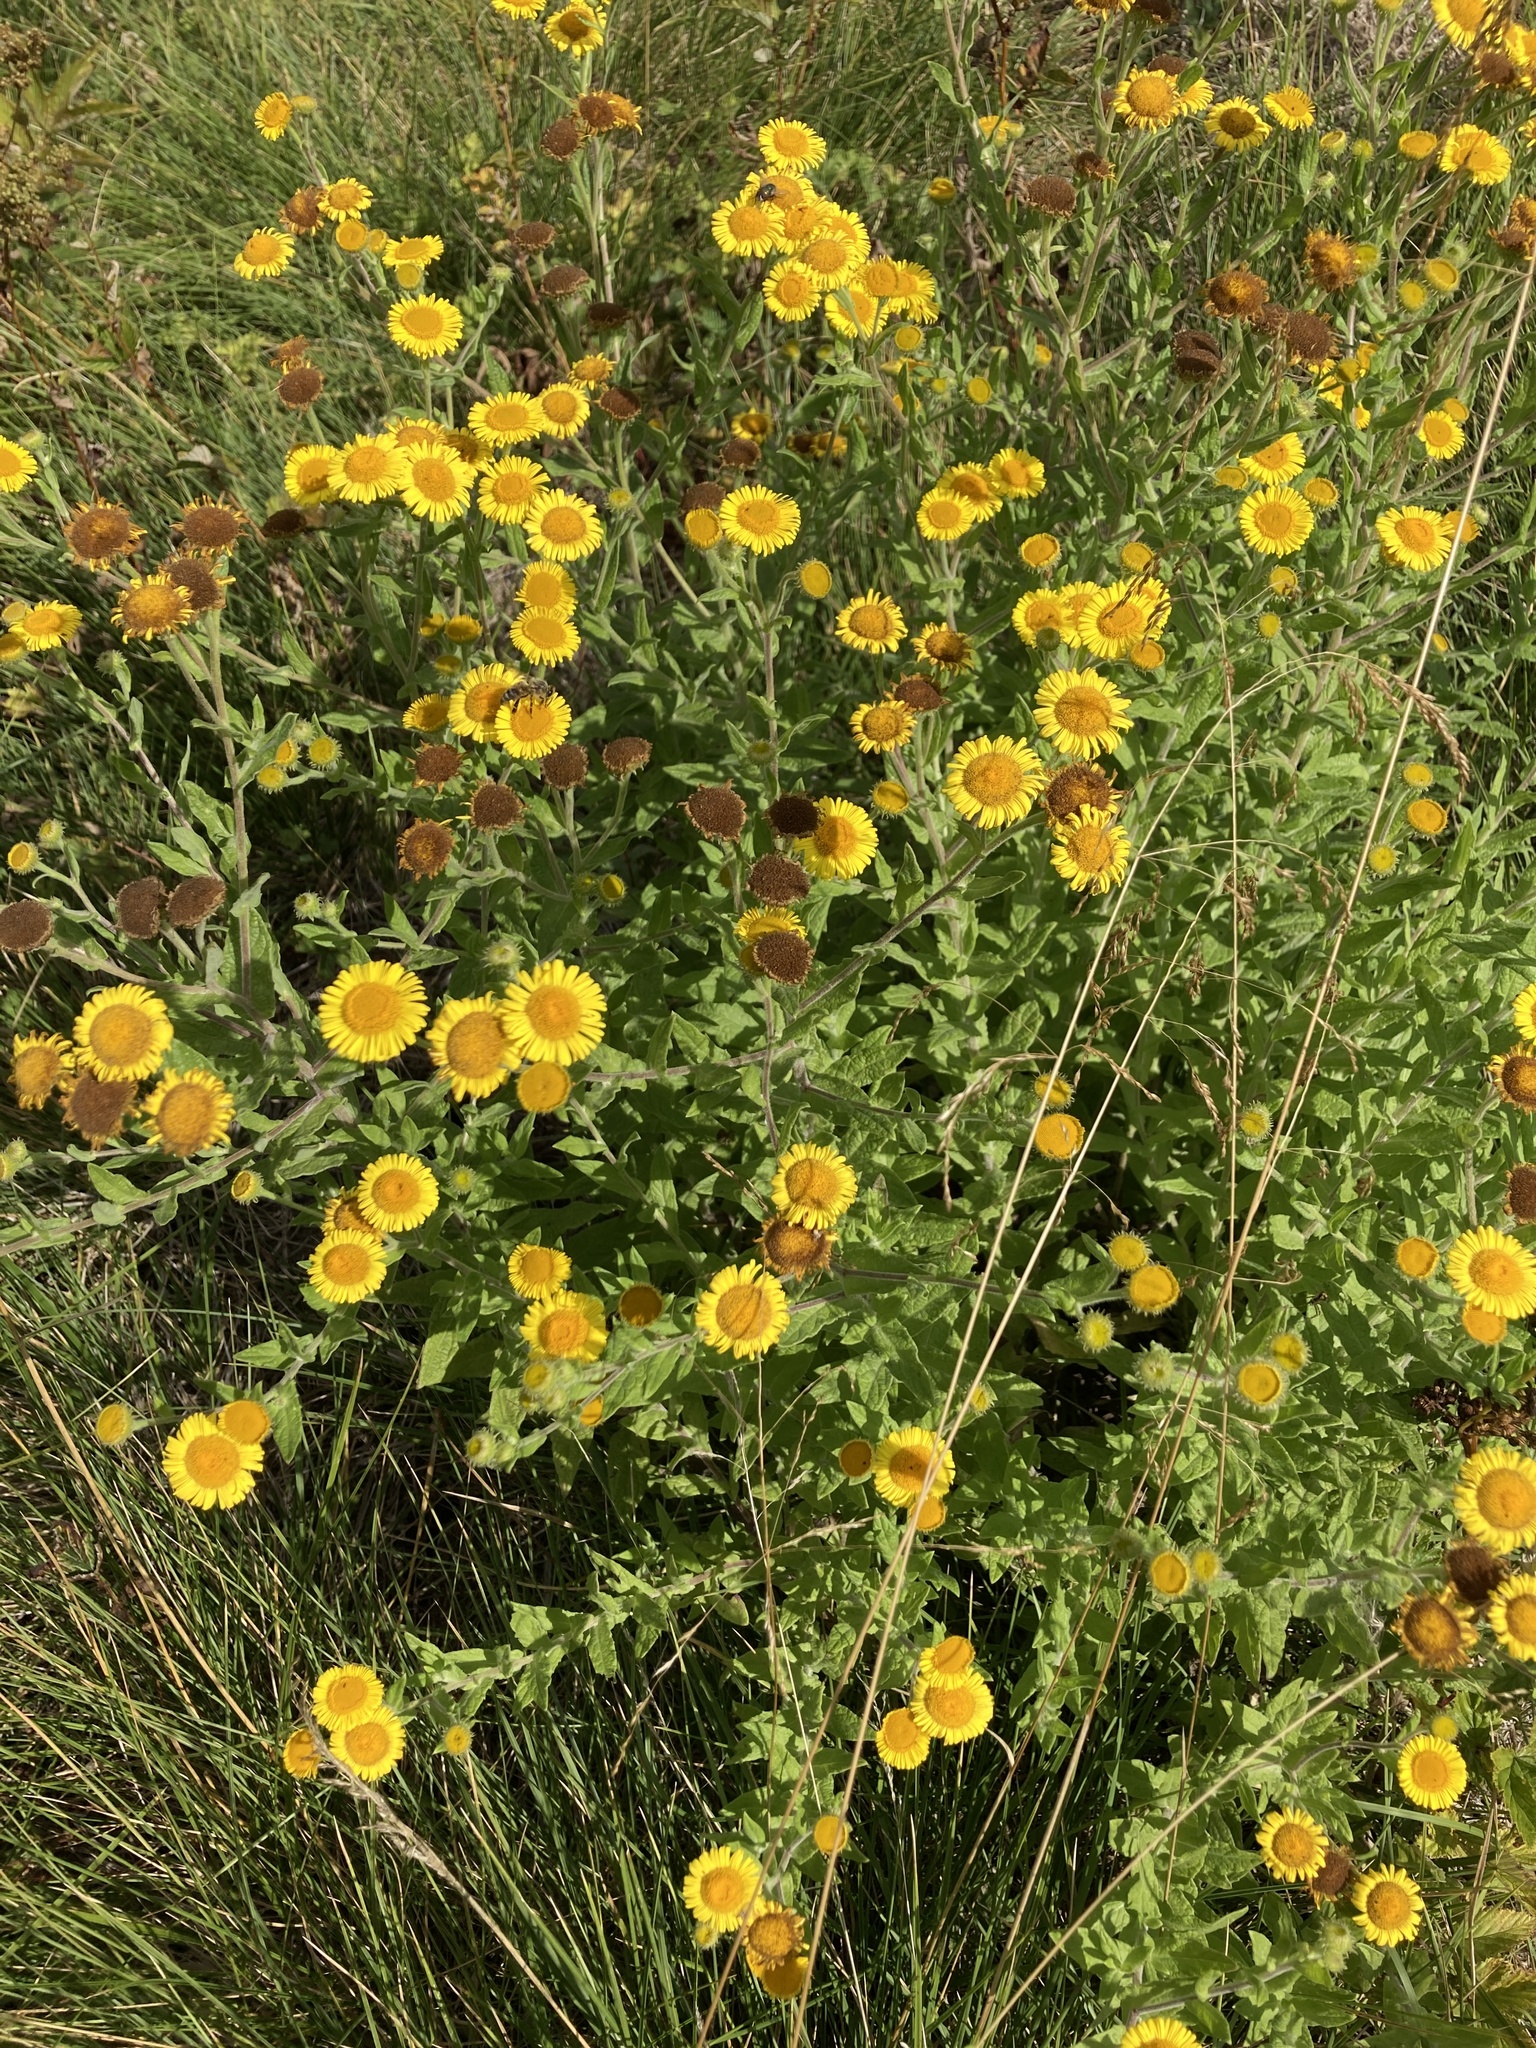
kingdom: Plantae
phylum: Tracheophyta
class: Magnoliopsida
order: Asterales
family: Asteraceae
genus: Pulicaria
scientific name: Pulicaria dysenterica
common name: Common fleabane
